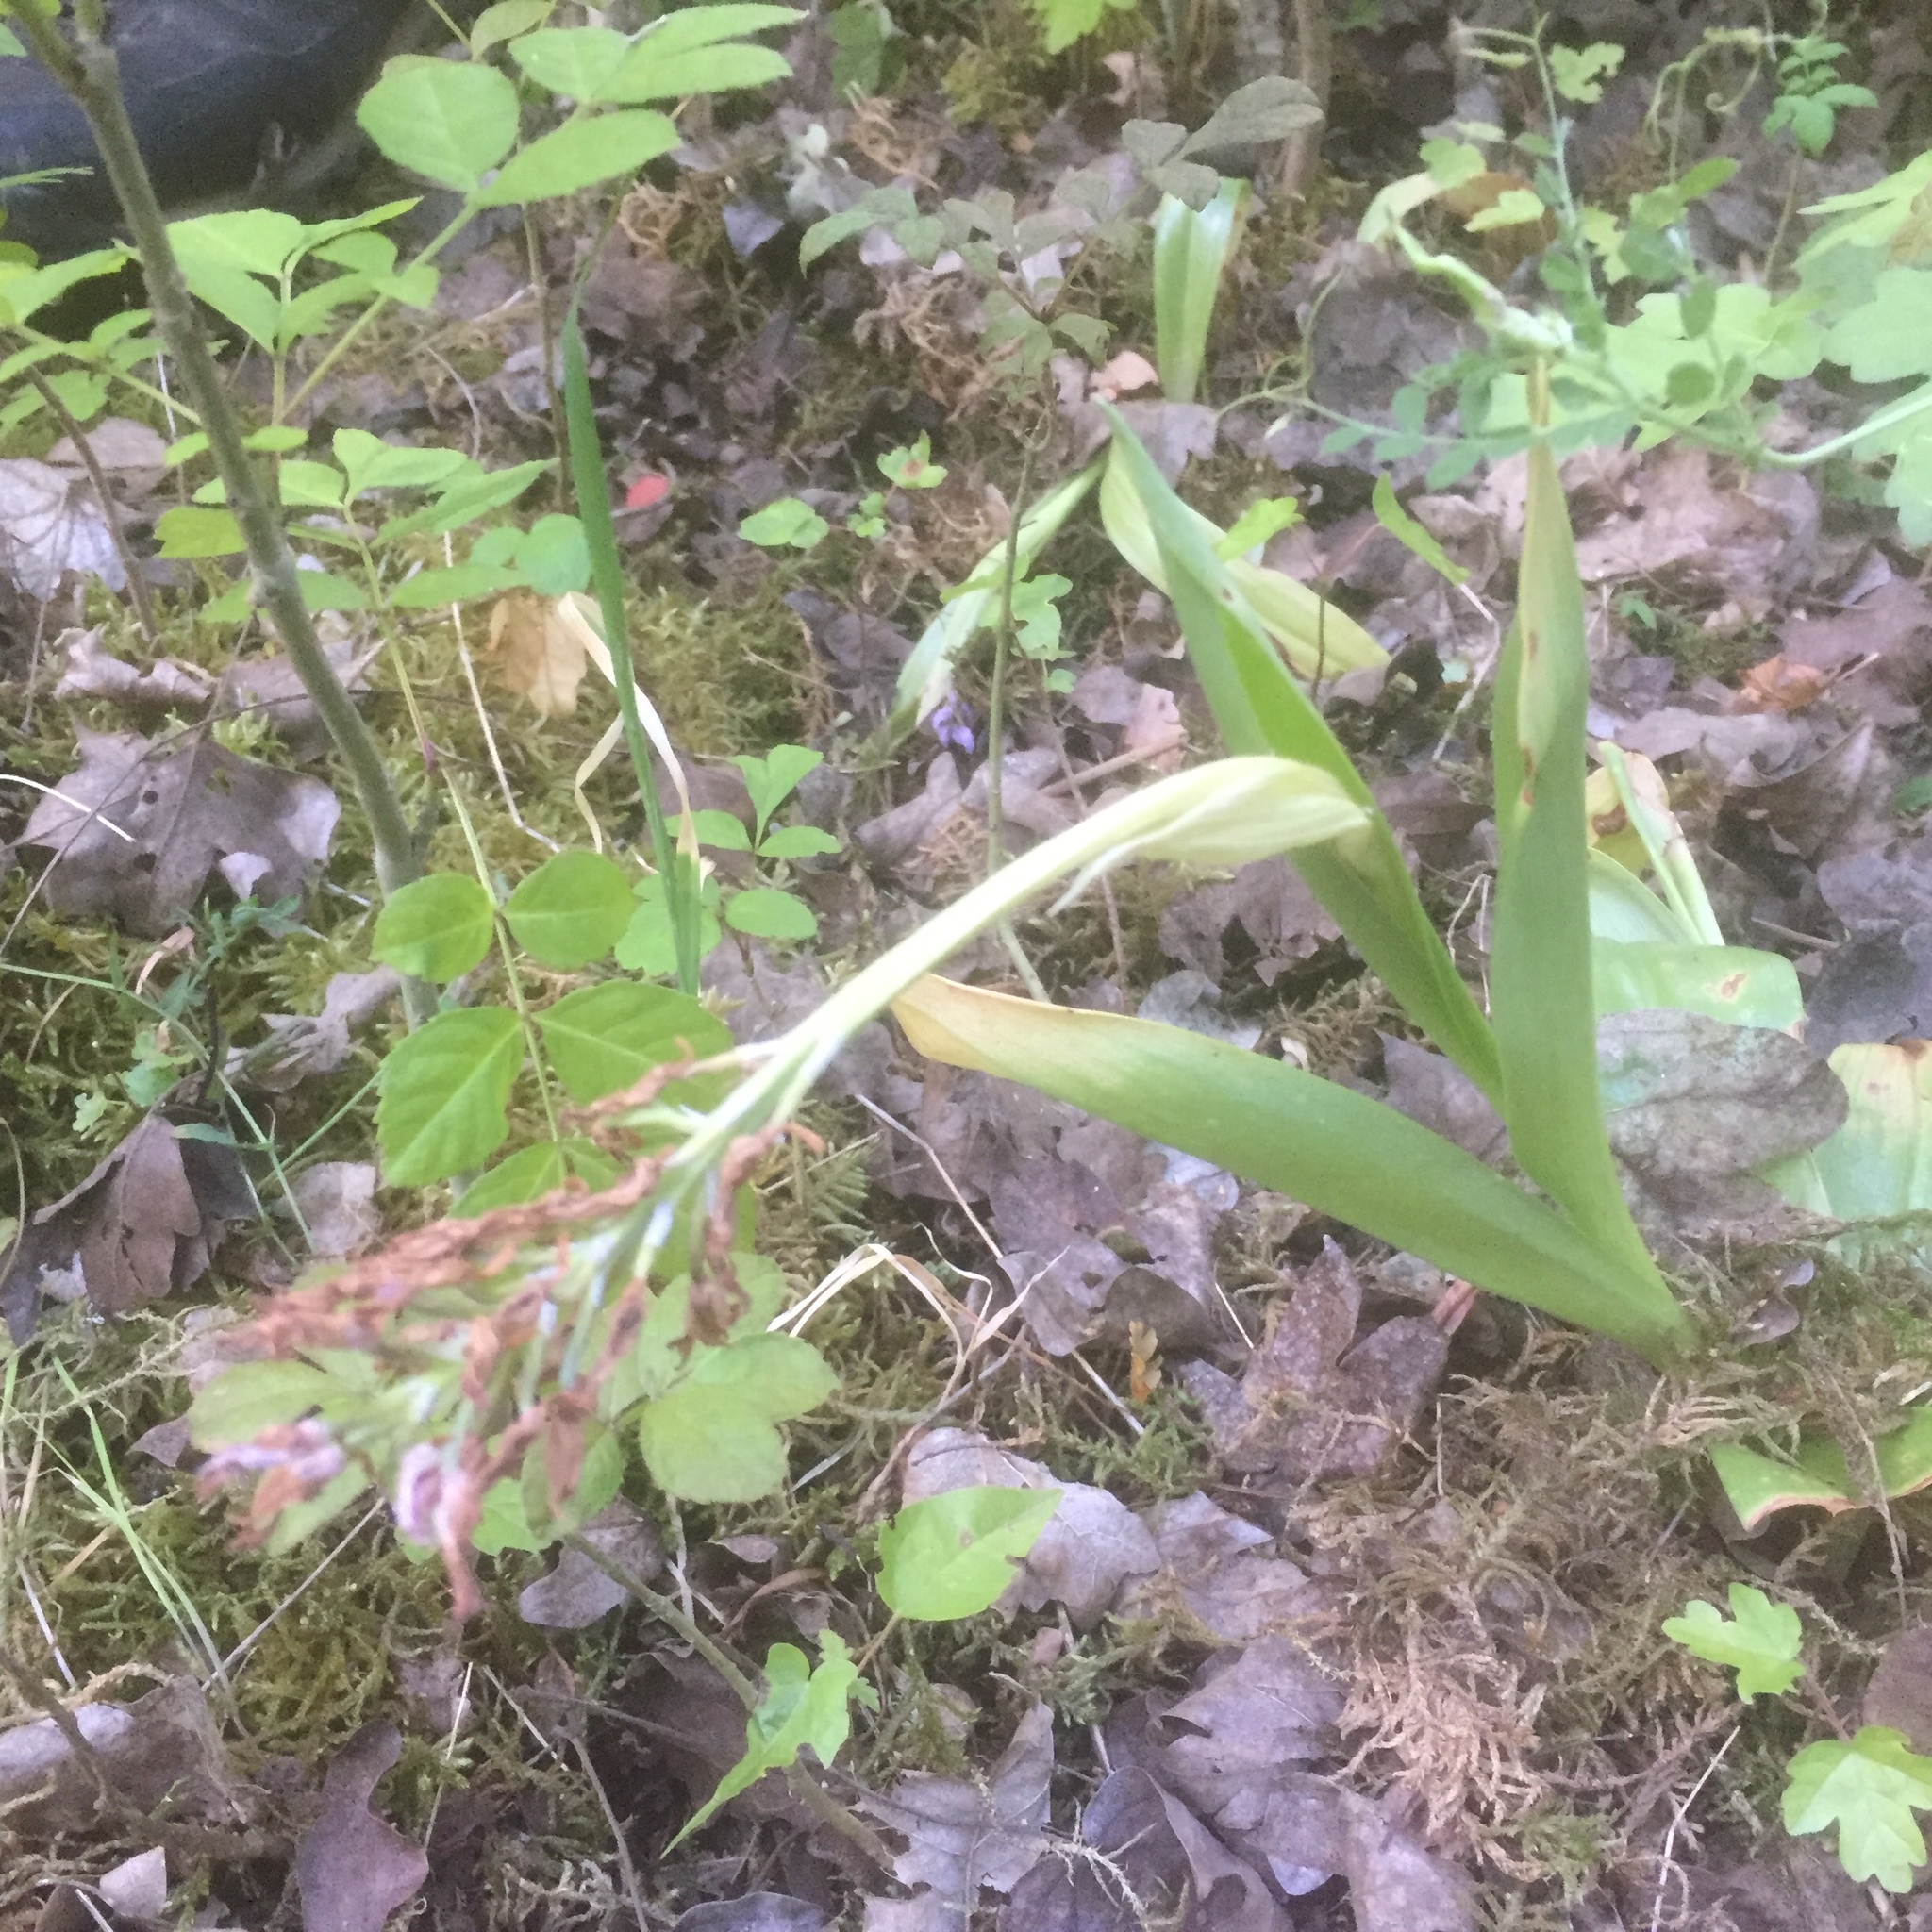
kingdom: Plantae
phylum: Tracheophyta
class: Liliopsida
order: Asparagales
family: Orchidaceae
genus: Orchis
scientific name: Orchis militaris
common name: Military orchid
